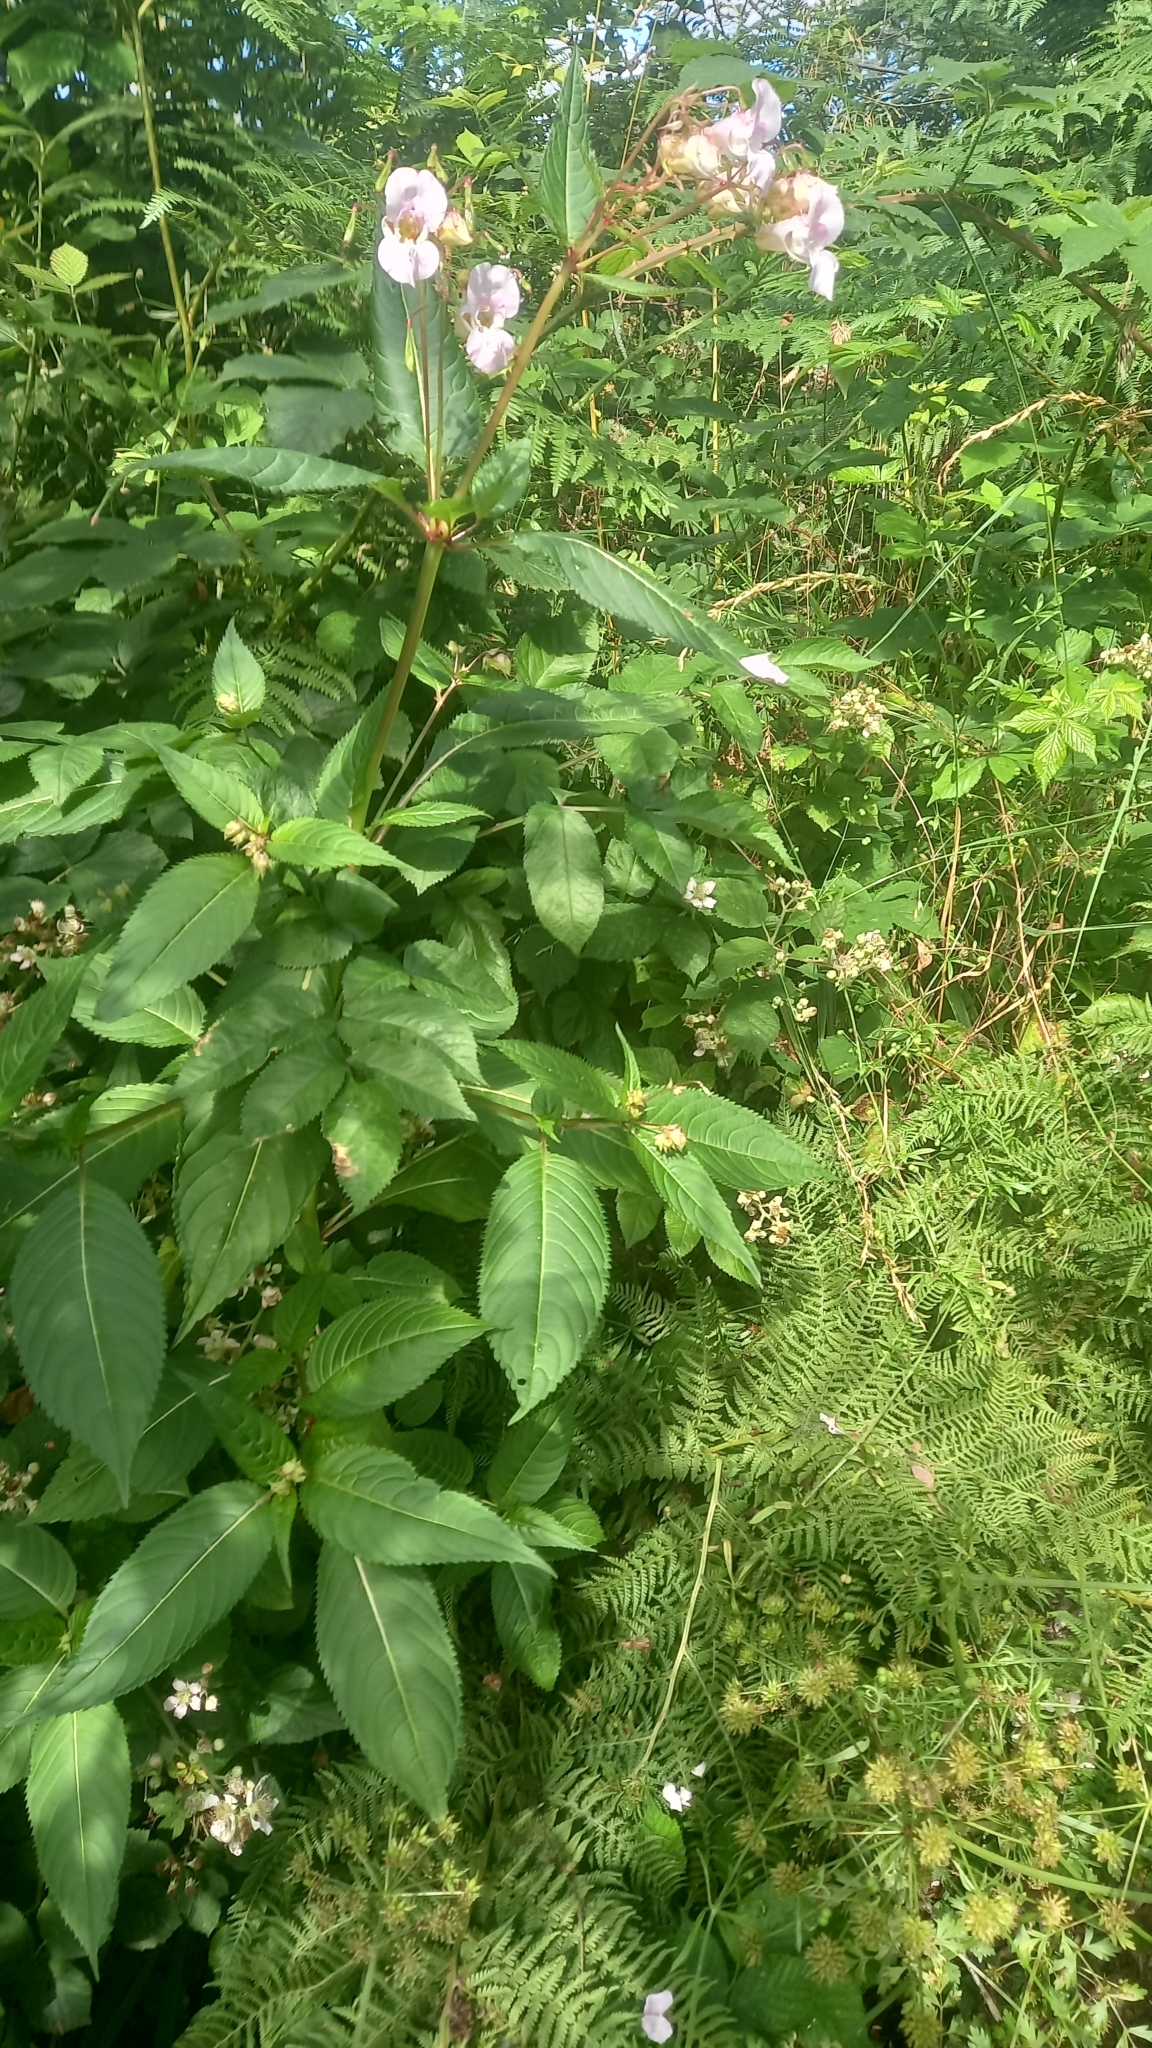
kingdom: Plantae
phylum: Tracheophyta
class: Magnoliopsida
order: Ericales
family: Balsaminaceae
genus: Impatiens
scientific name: Impatiens glandulifera
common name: Himalayan balsam
